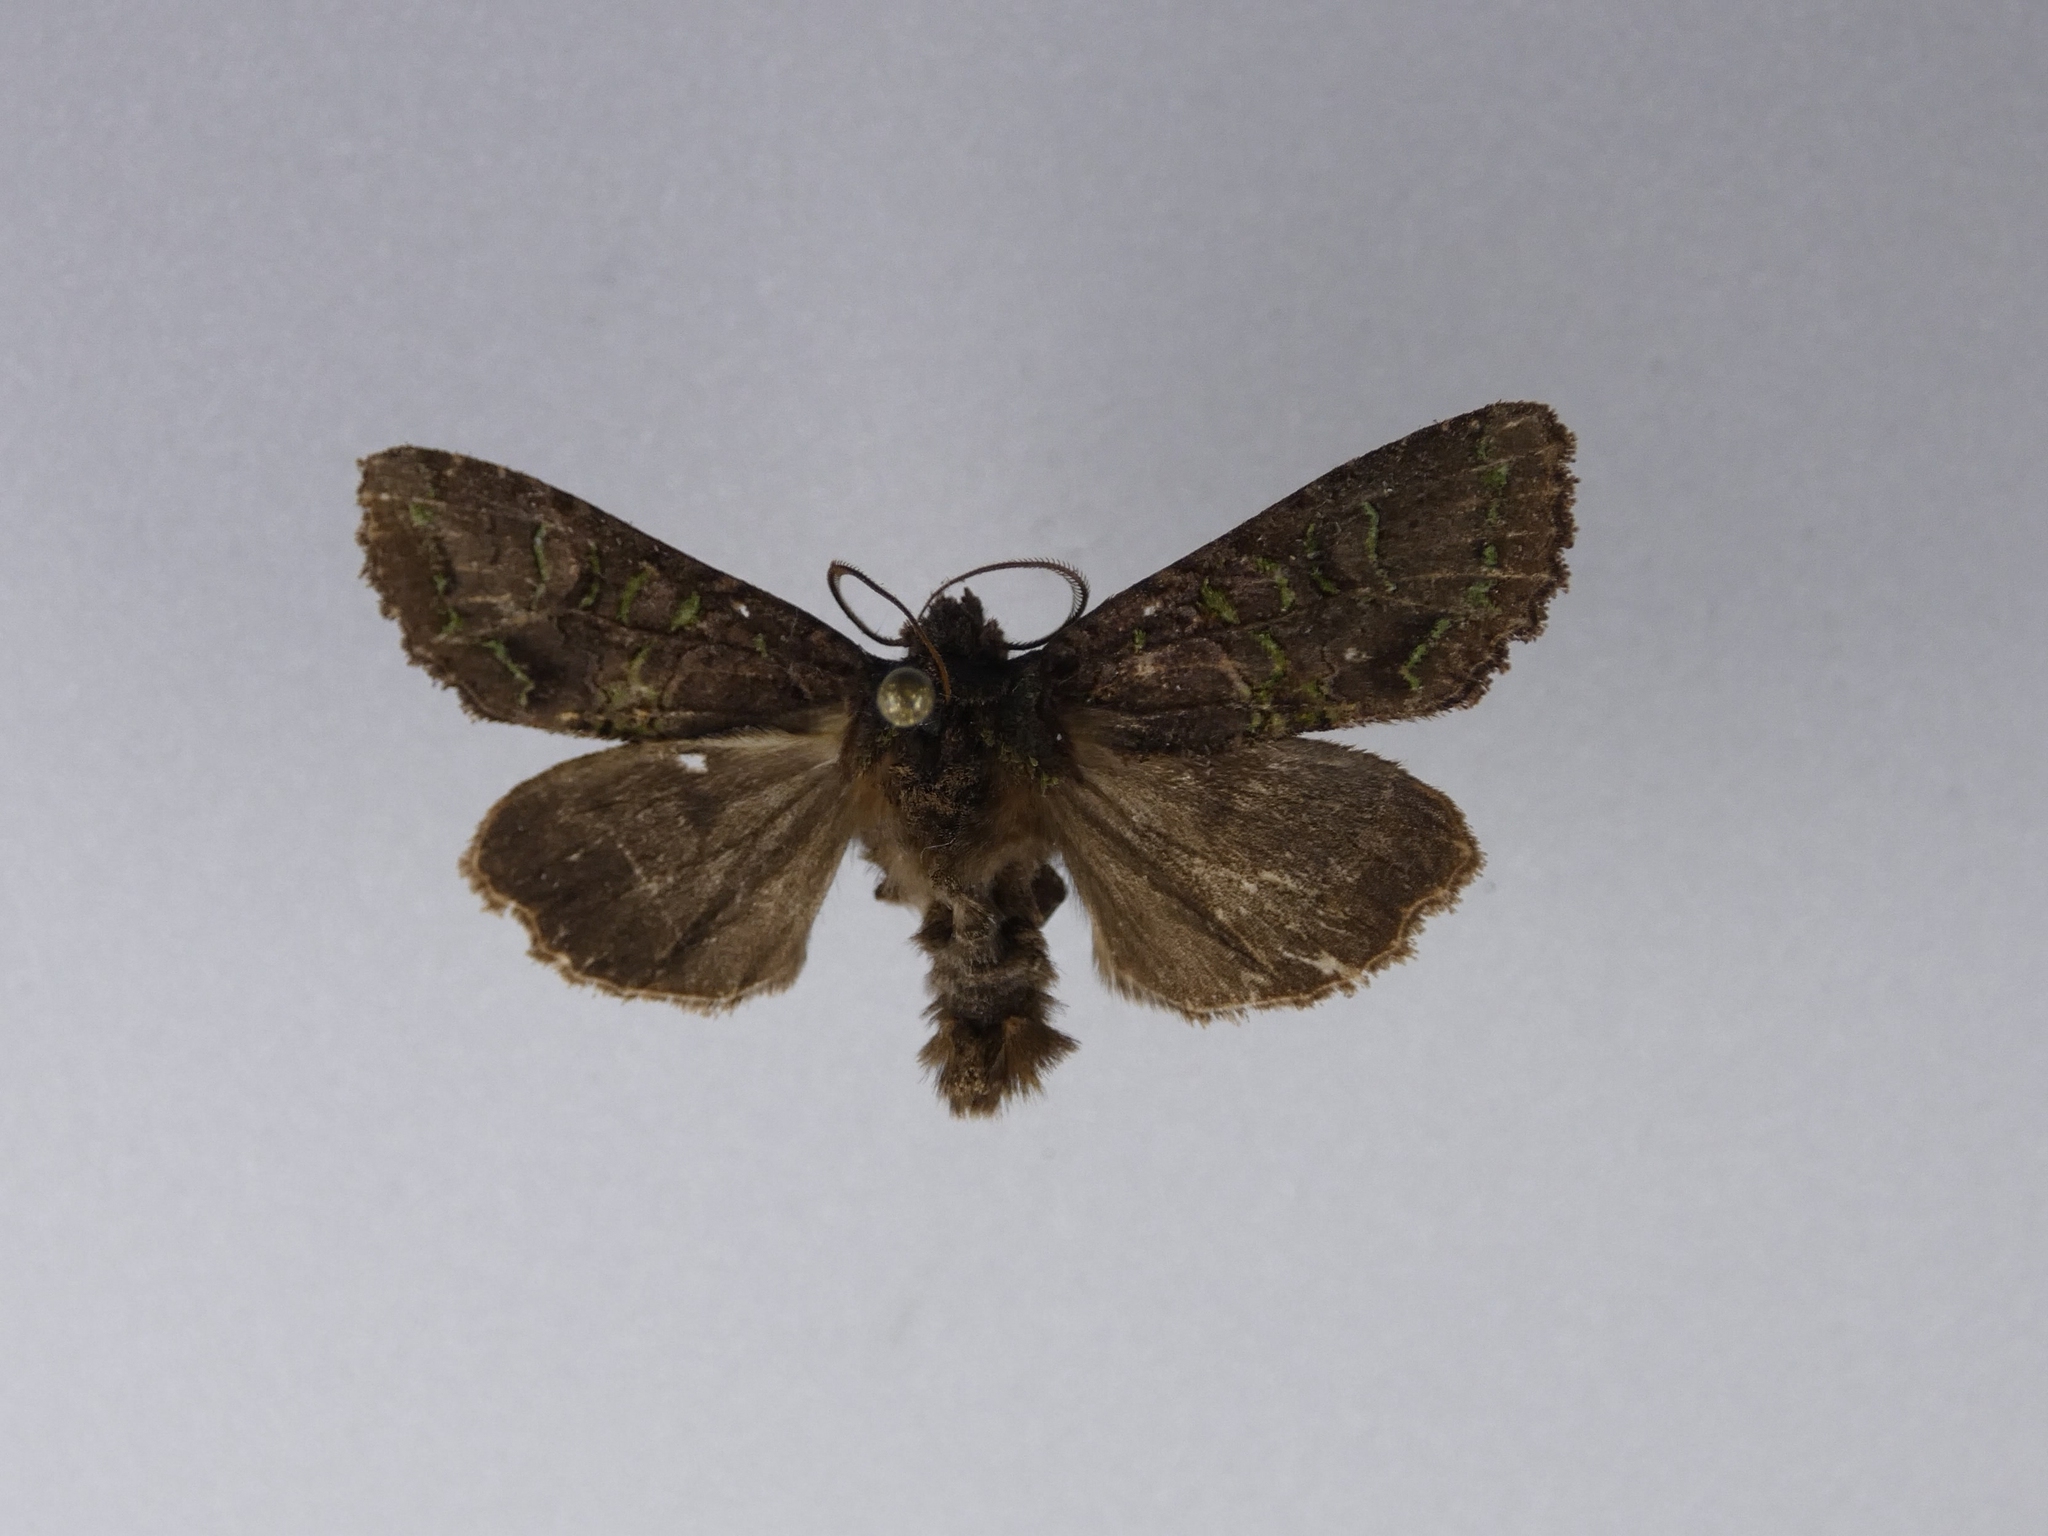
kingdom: Animalia
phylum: Arthropoda
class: Insecta
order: Lepidoptera
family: Noctuidae
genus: Ichneutica
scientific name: Ichneutica insignis
